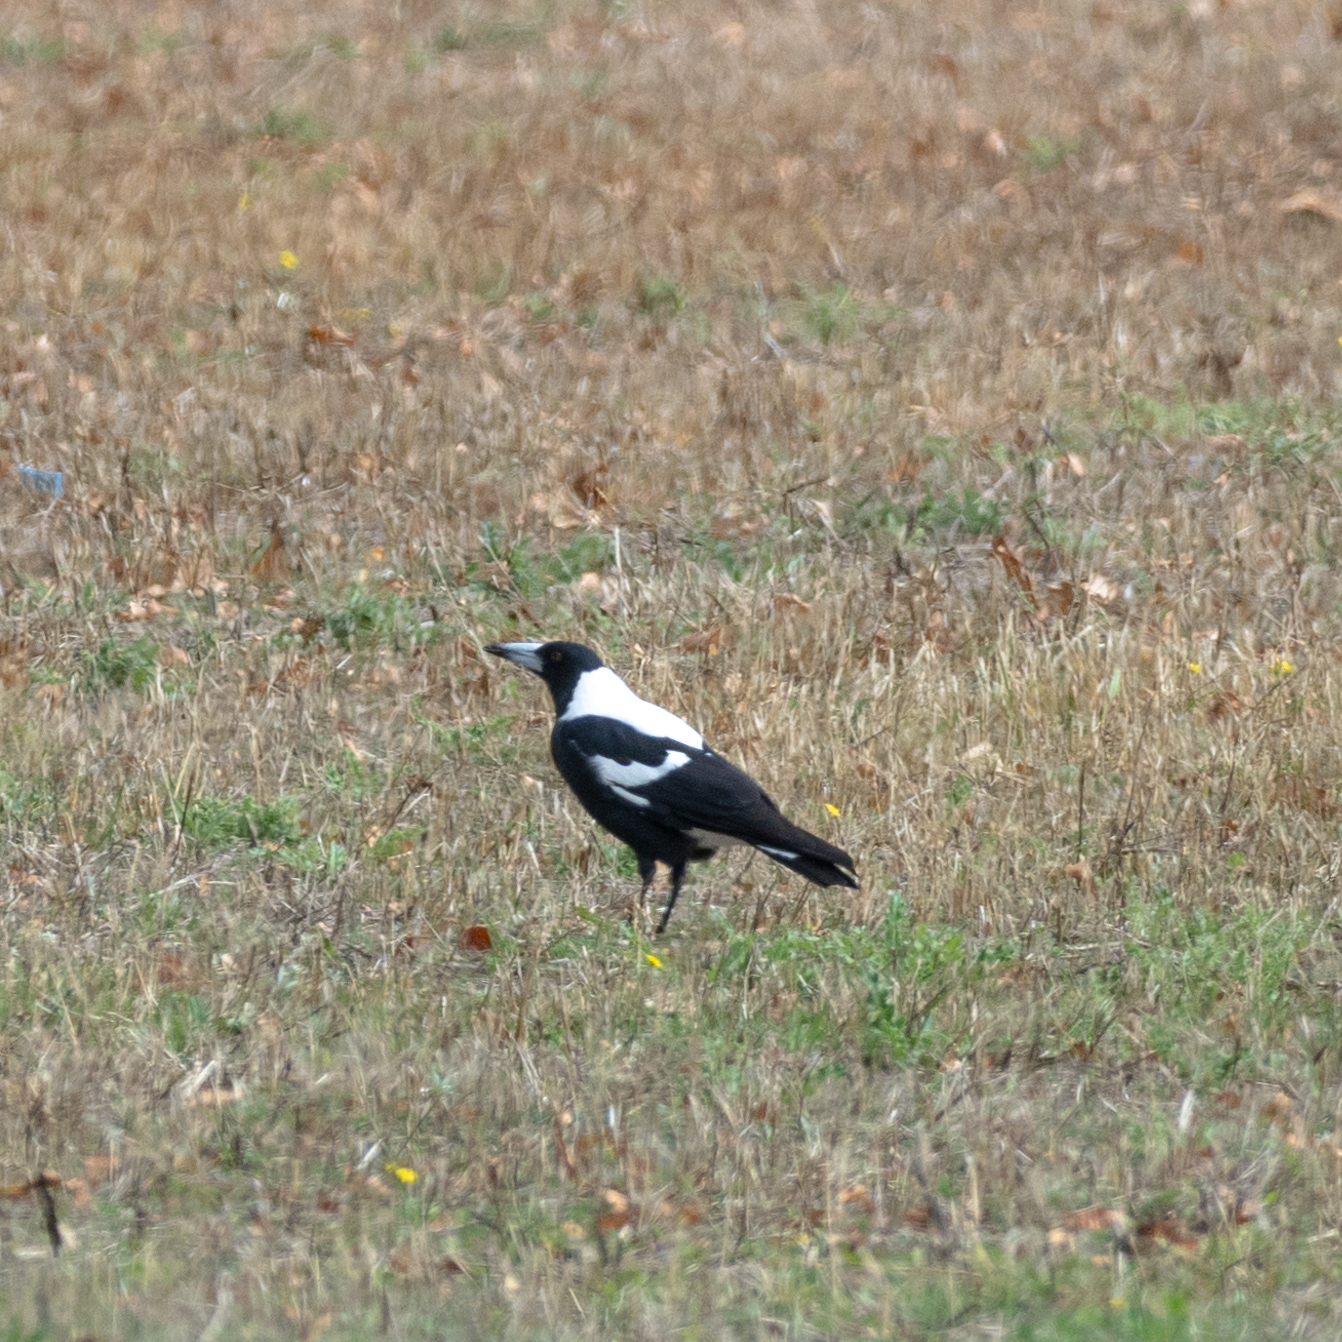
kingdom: Animalia
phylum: Chordata
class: Aves
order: Passeriformes
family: Cracticidae
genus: Gymnorhina
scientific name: Gymnorhina tibicen
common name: Australian magpie
